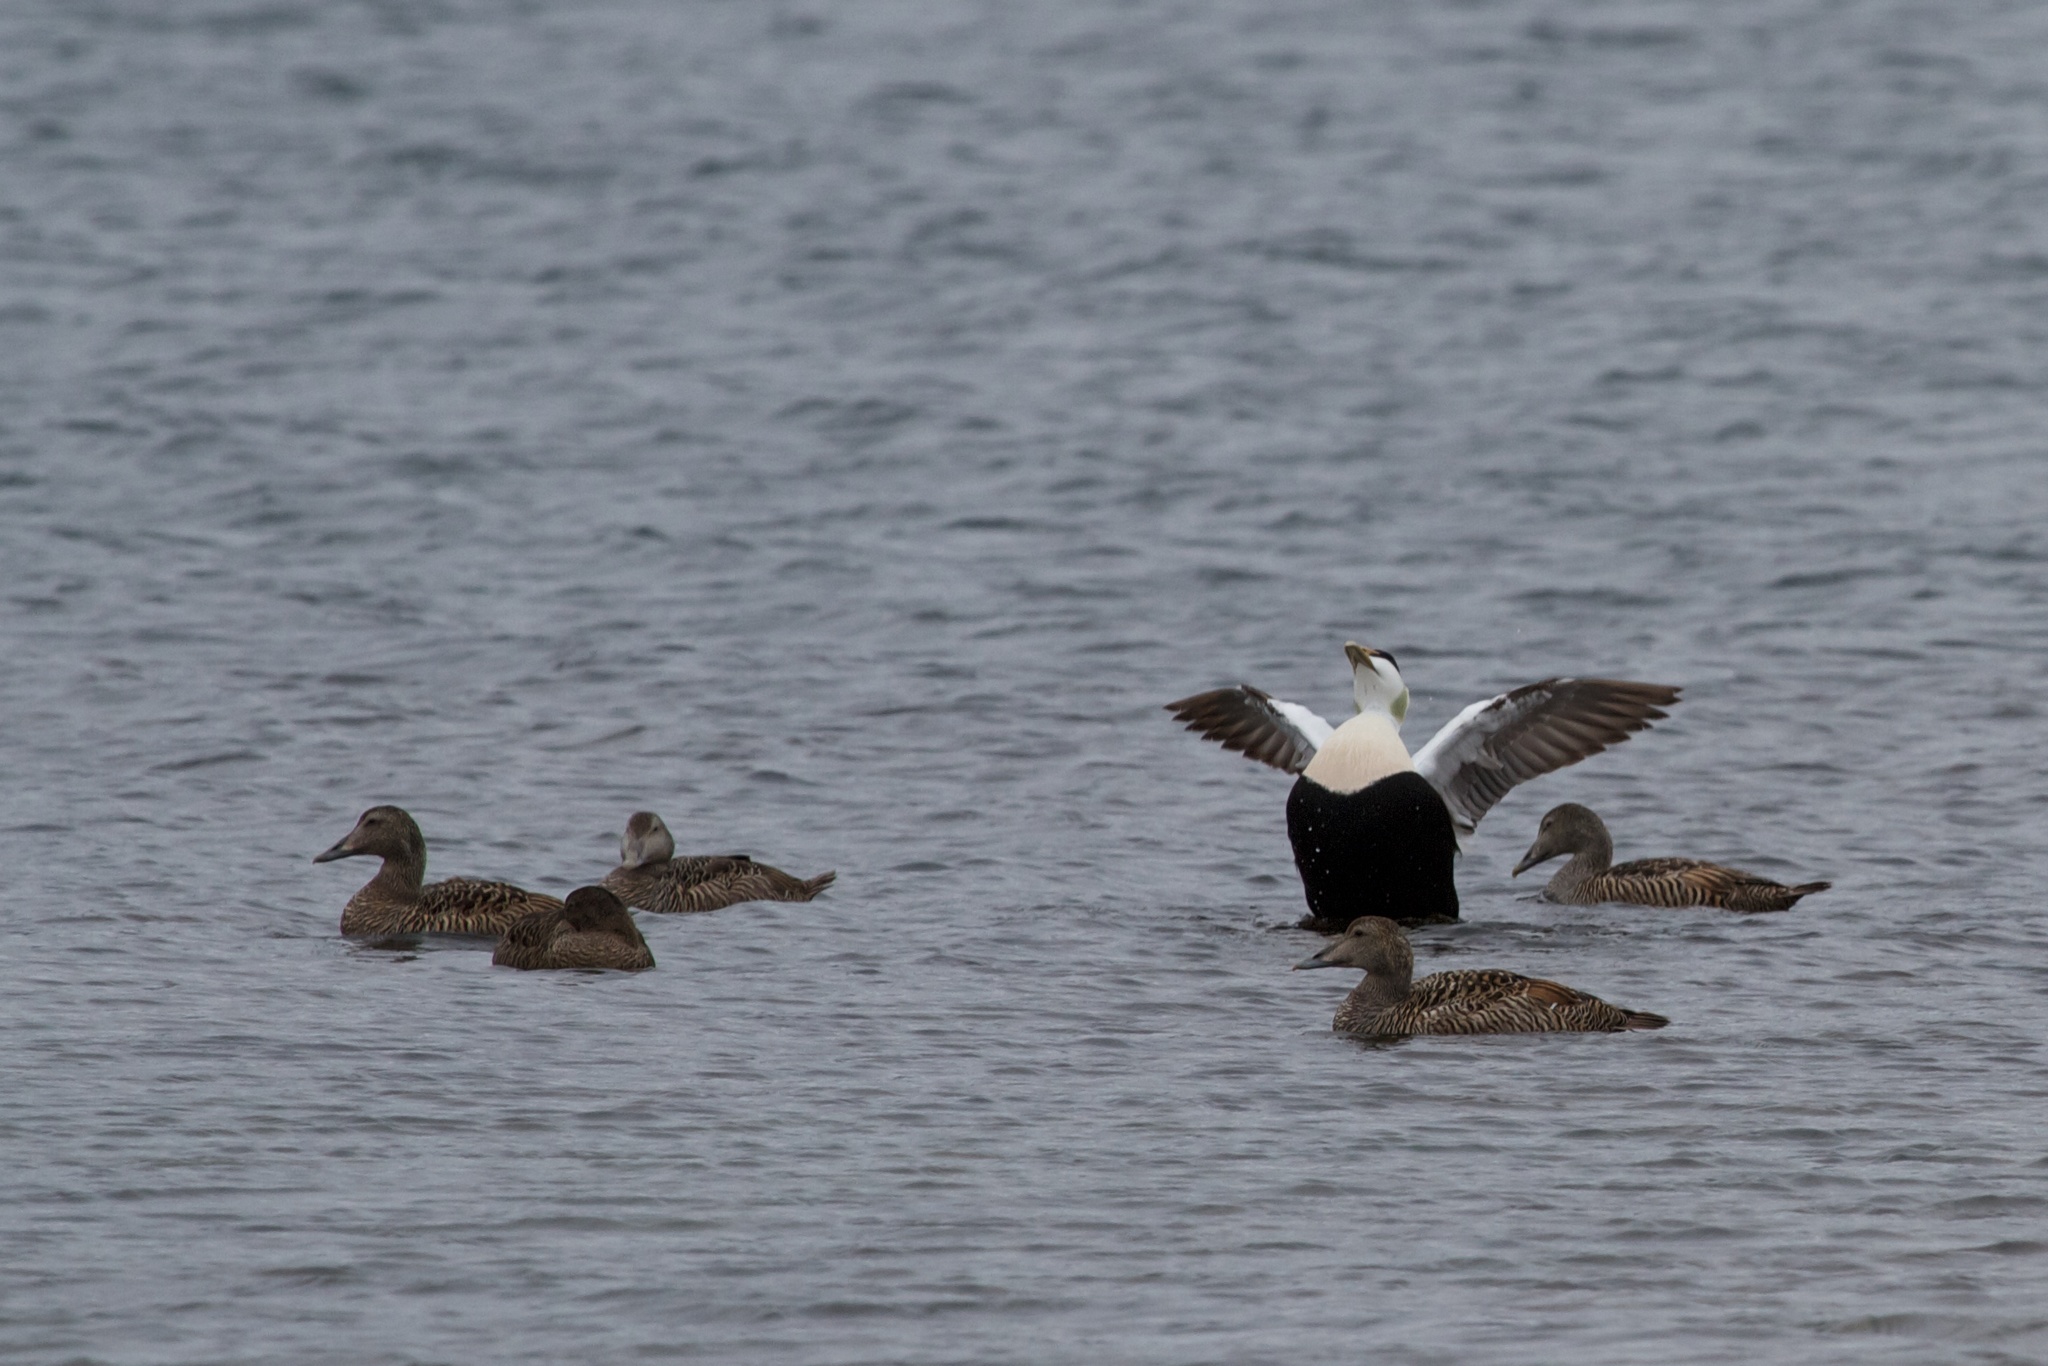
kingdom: Animalia
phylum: Chordata
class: Aves
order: Anseriformes
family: Anatidae
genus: Somateria
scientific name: Somateria mollissima
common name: Common eider
